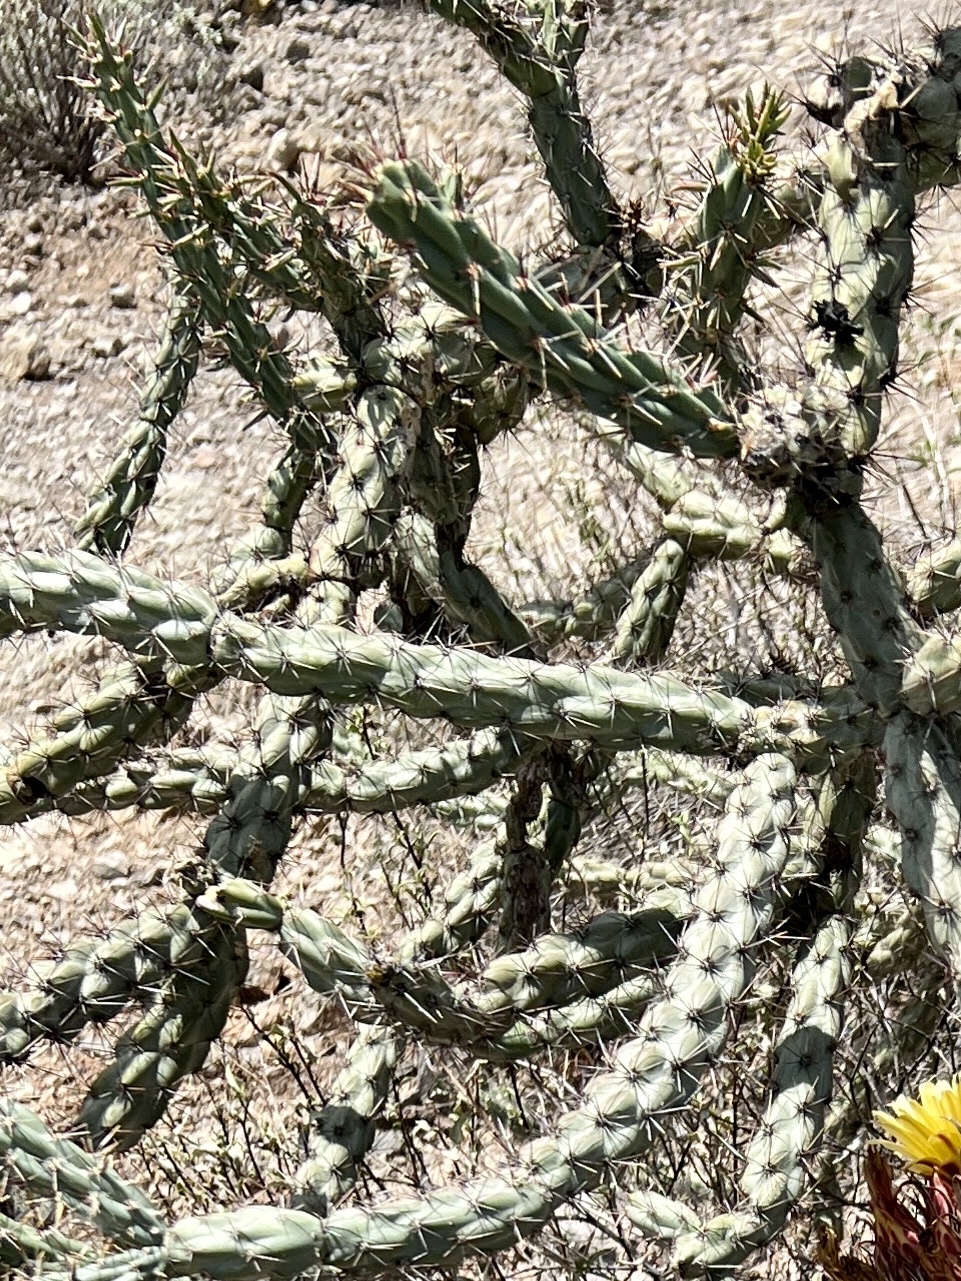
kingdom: Plantae
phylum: Tracheophyta
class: Magnoliopsida
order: Caryophyllales
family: Cactaceae
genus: Cylindropuntia
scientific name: Cylindropuntia acanthocarpa
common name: Buckhorn cholla
